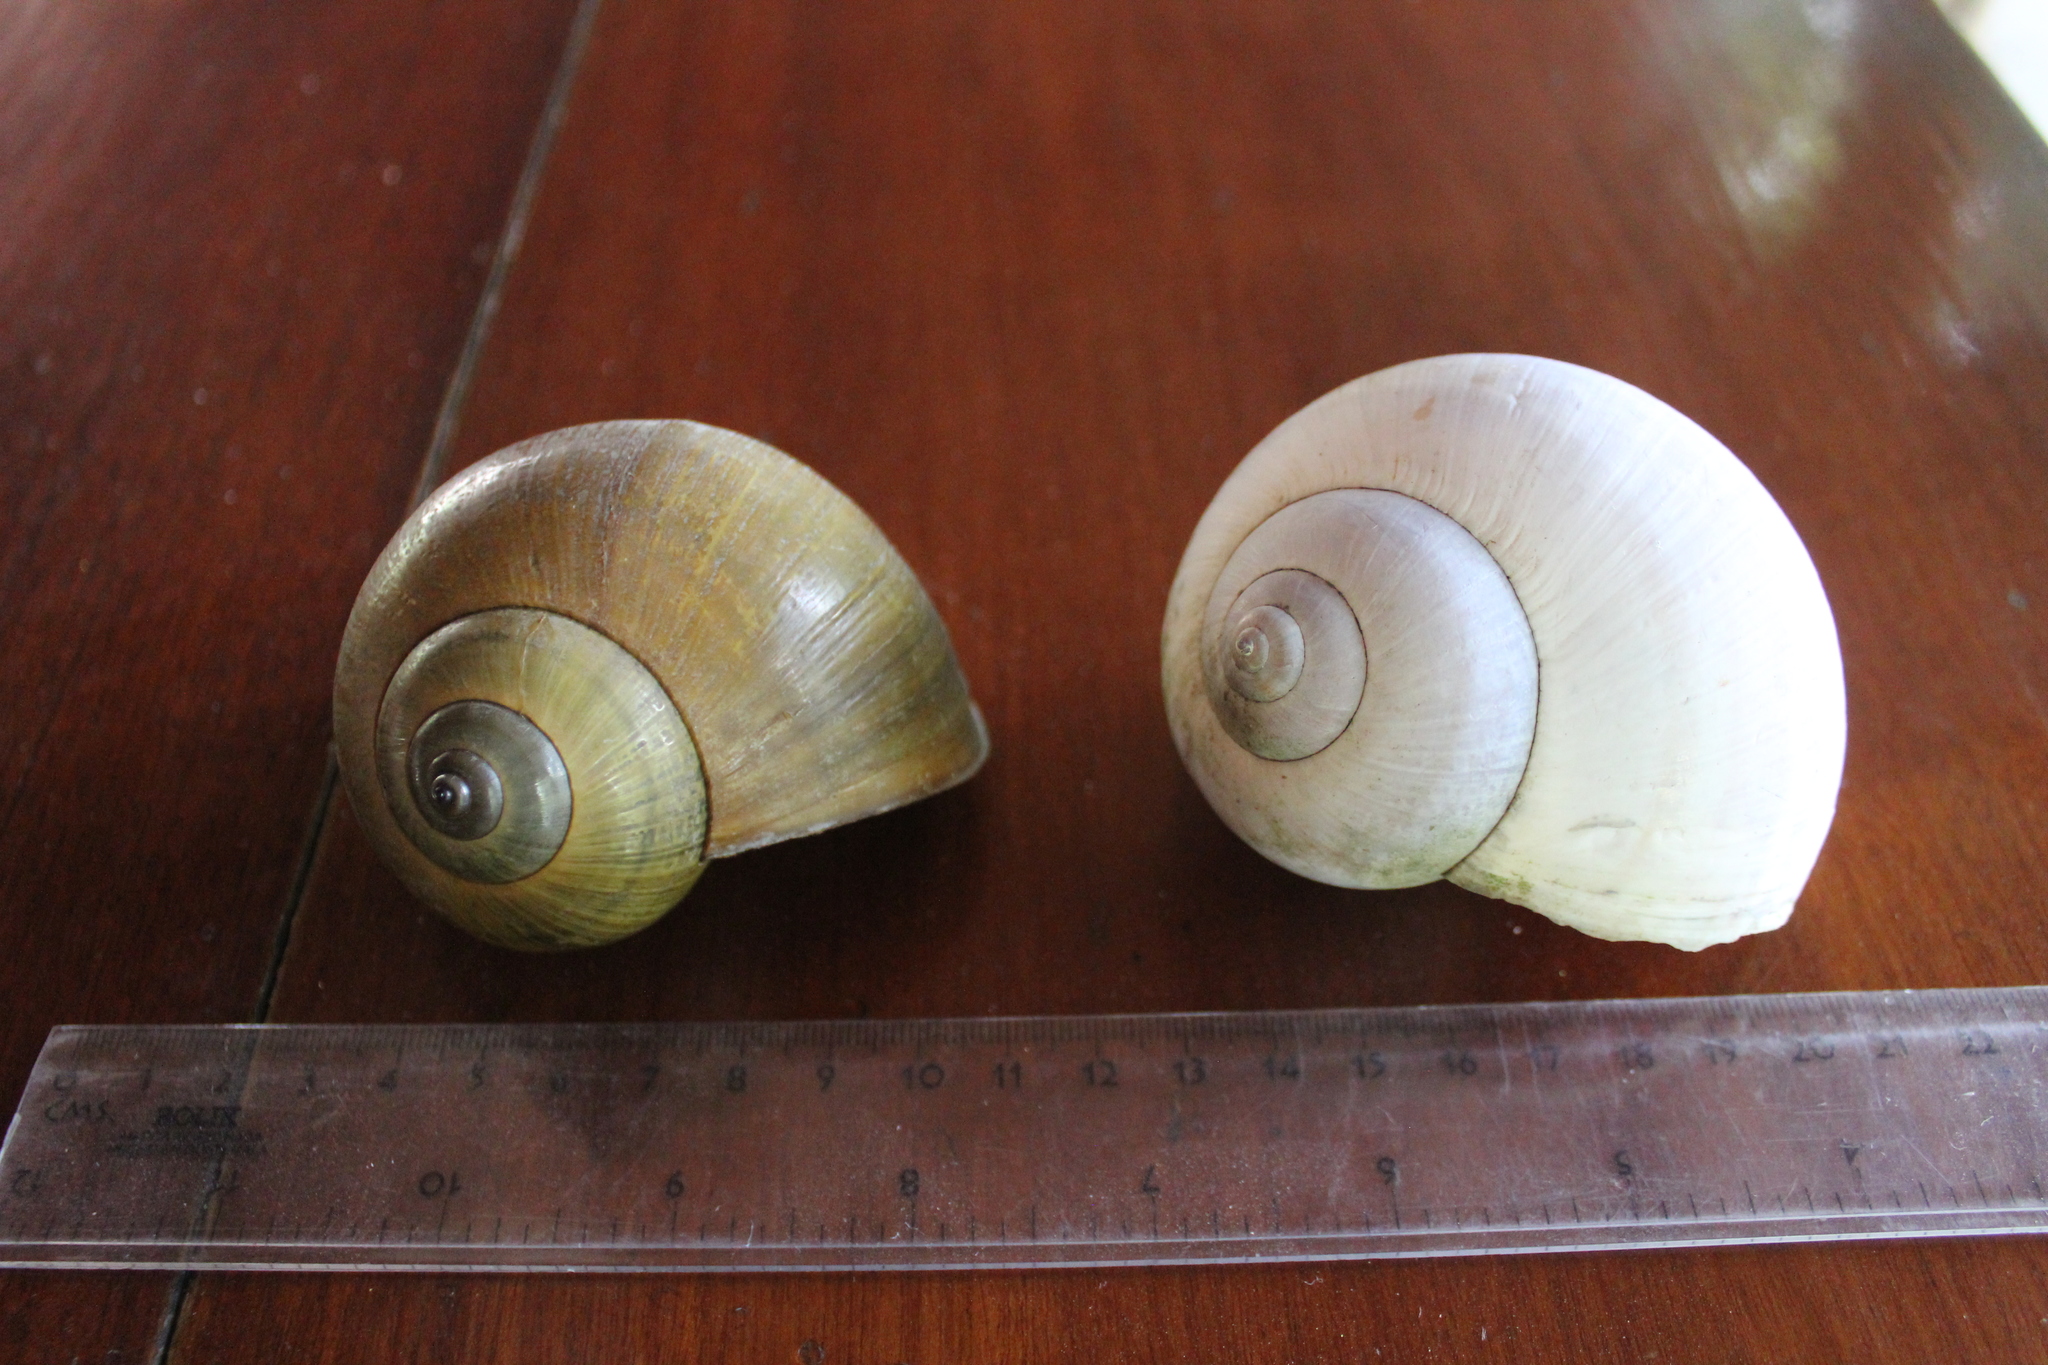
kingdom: Animalia
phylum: Mollusca
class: Gastropoda
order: Architaenioglossa
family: Ampullariidae
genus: Pomacea
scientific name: Pomacea canaliculata
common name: Channeled applesnail
